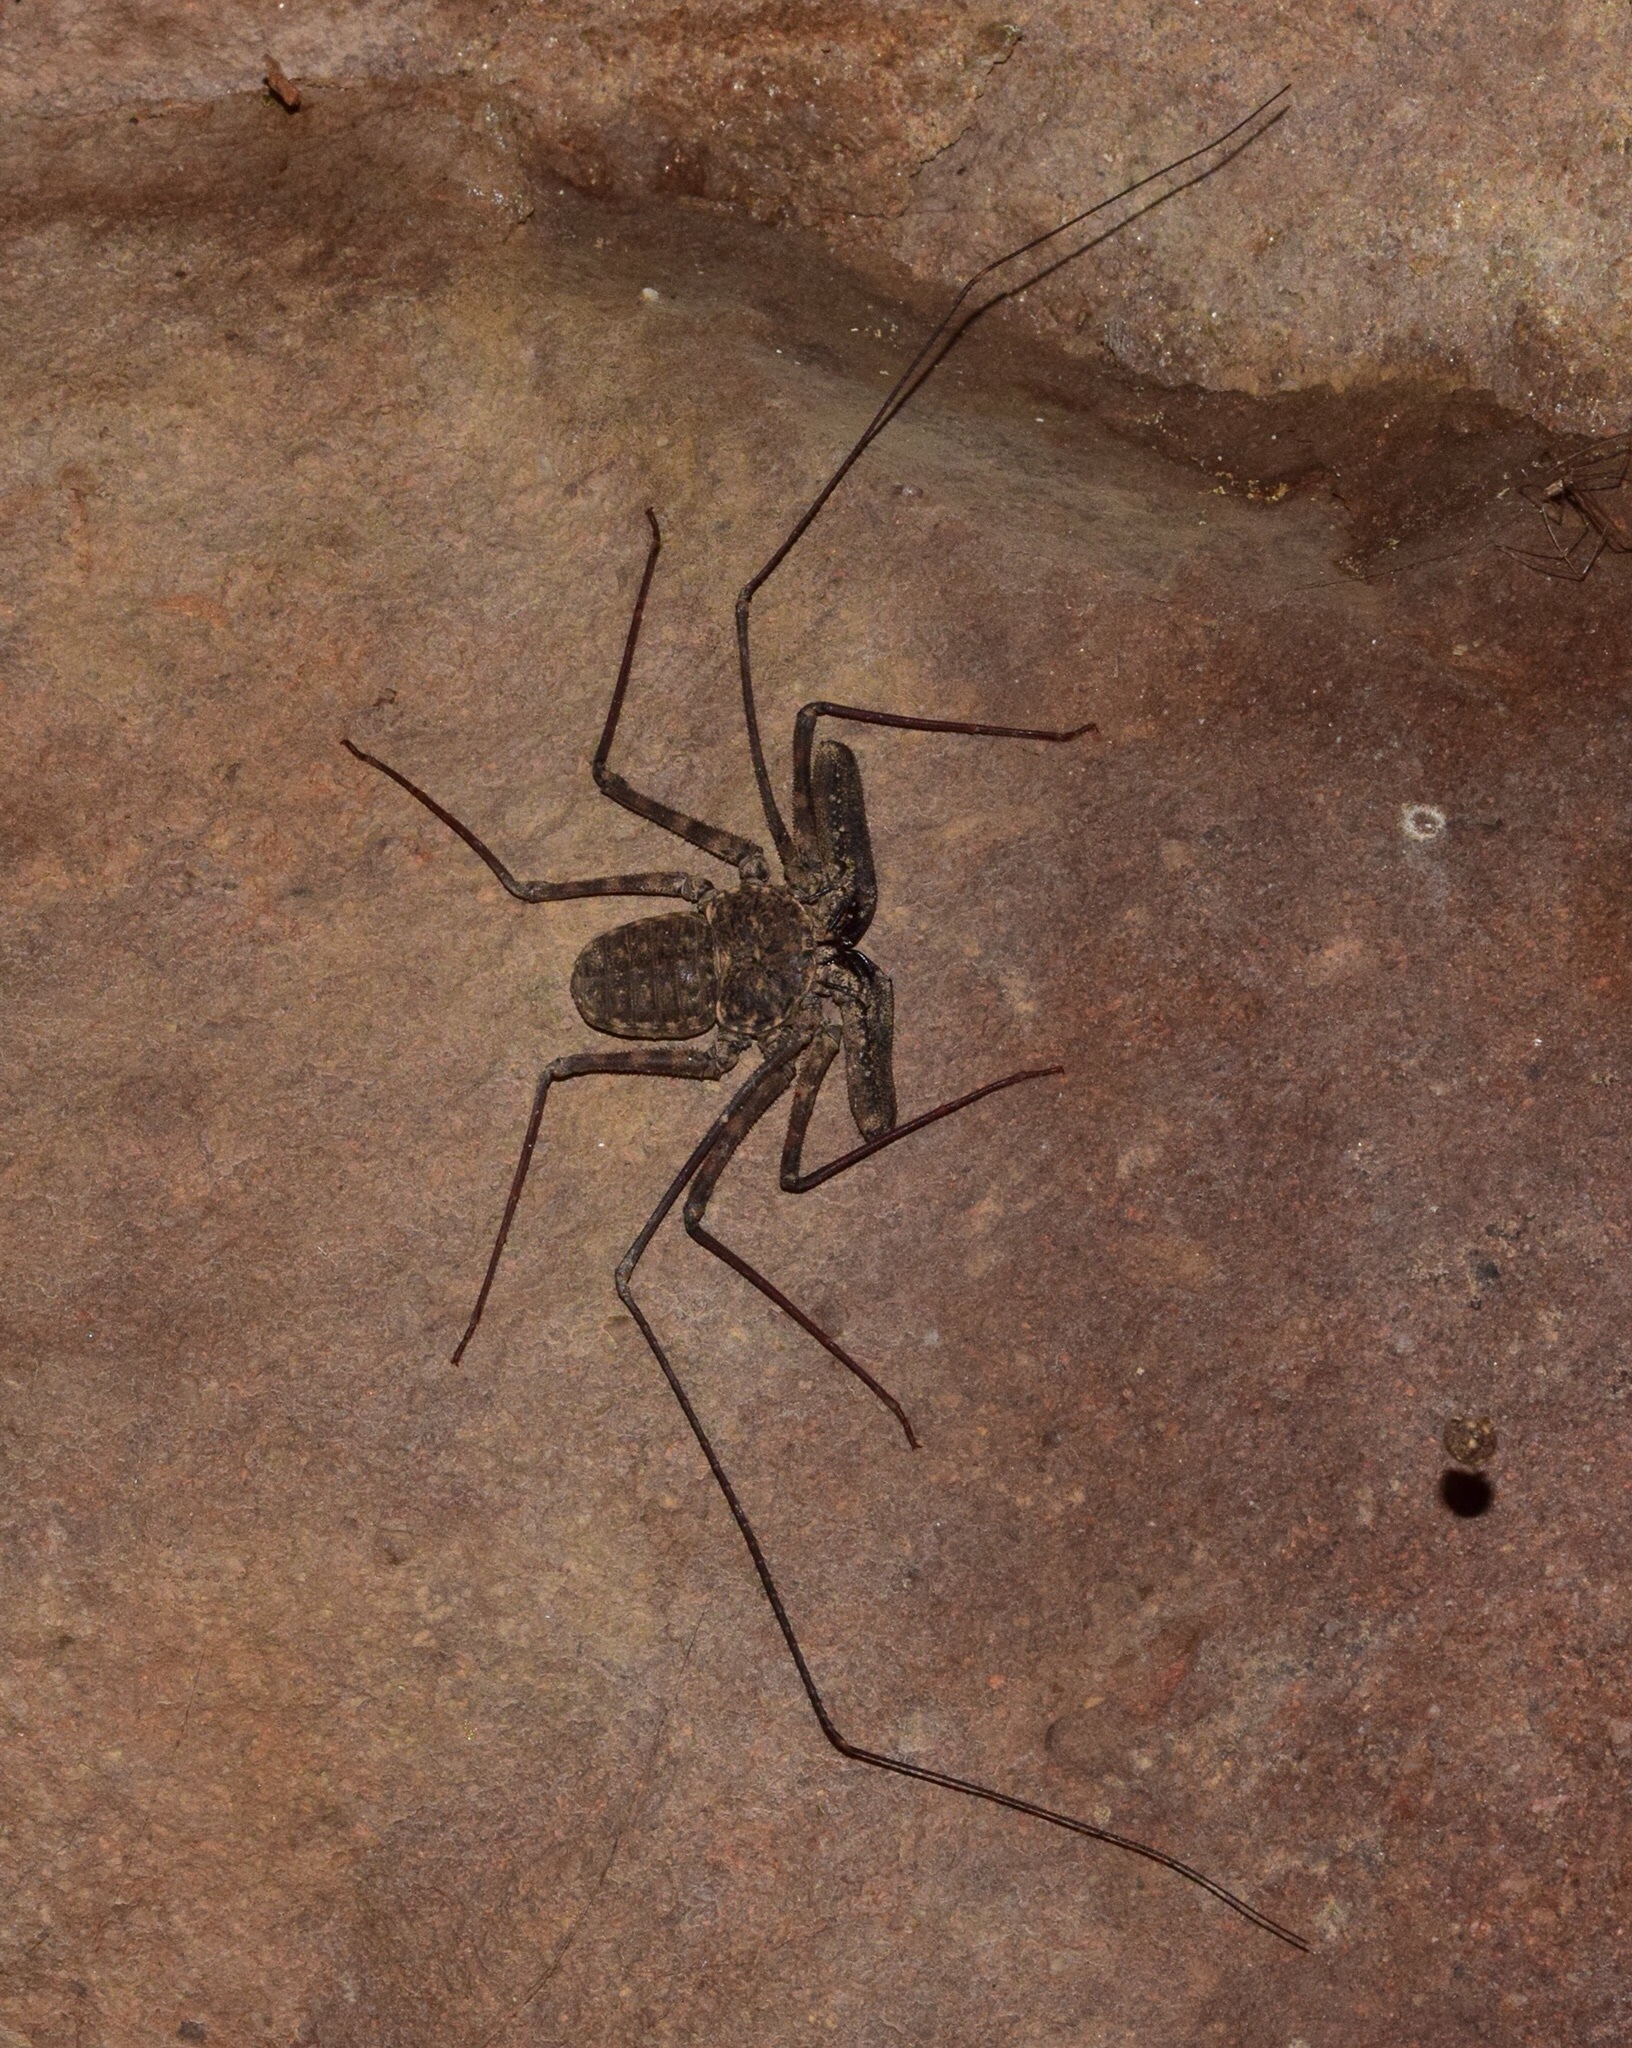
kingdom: Animalia
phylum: Arthropoda
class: Arachnida
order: Amblypygi
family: Phrynichidae
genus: Damon
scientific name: Damon annulatipes
